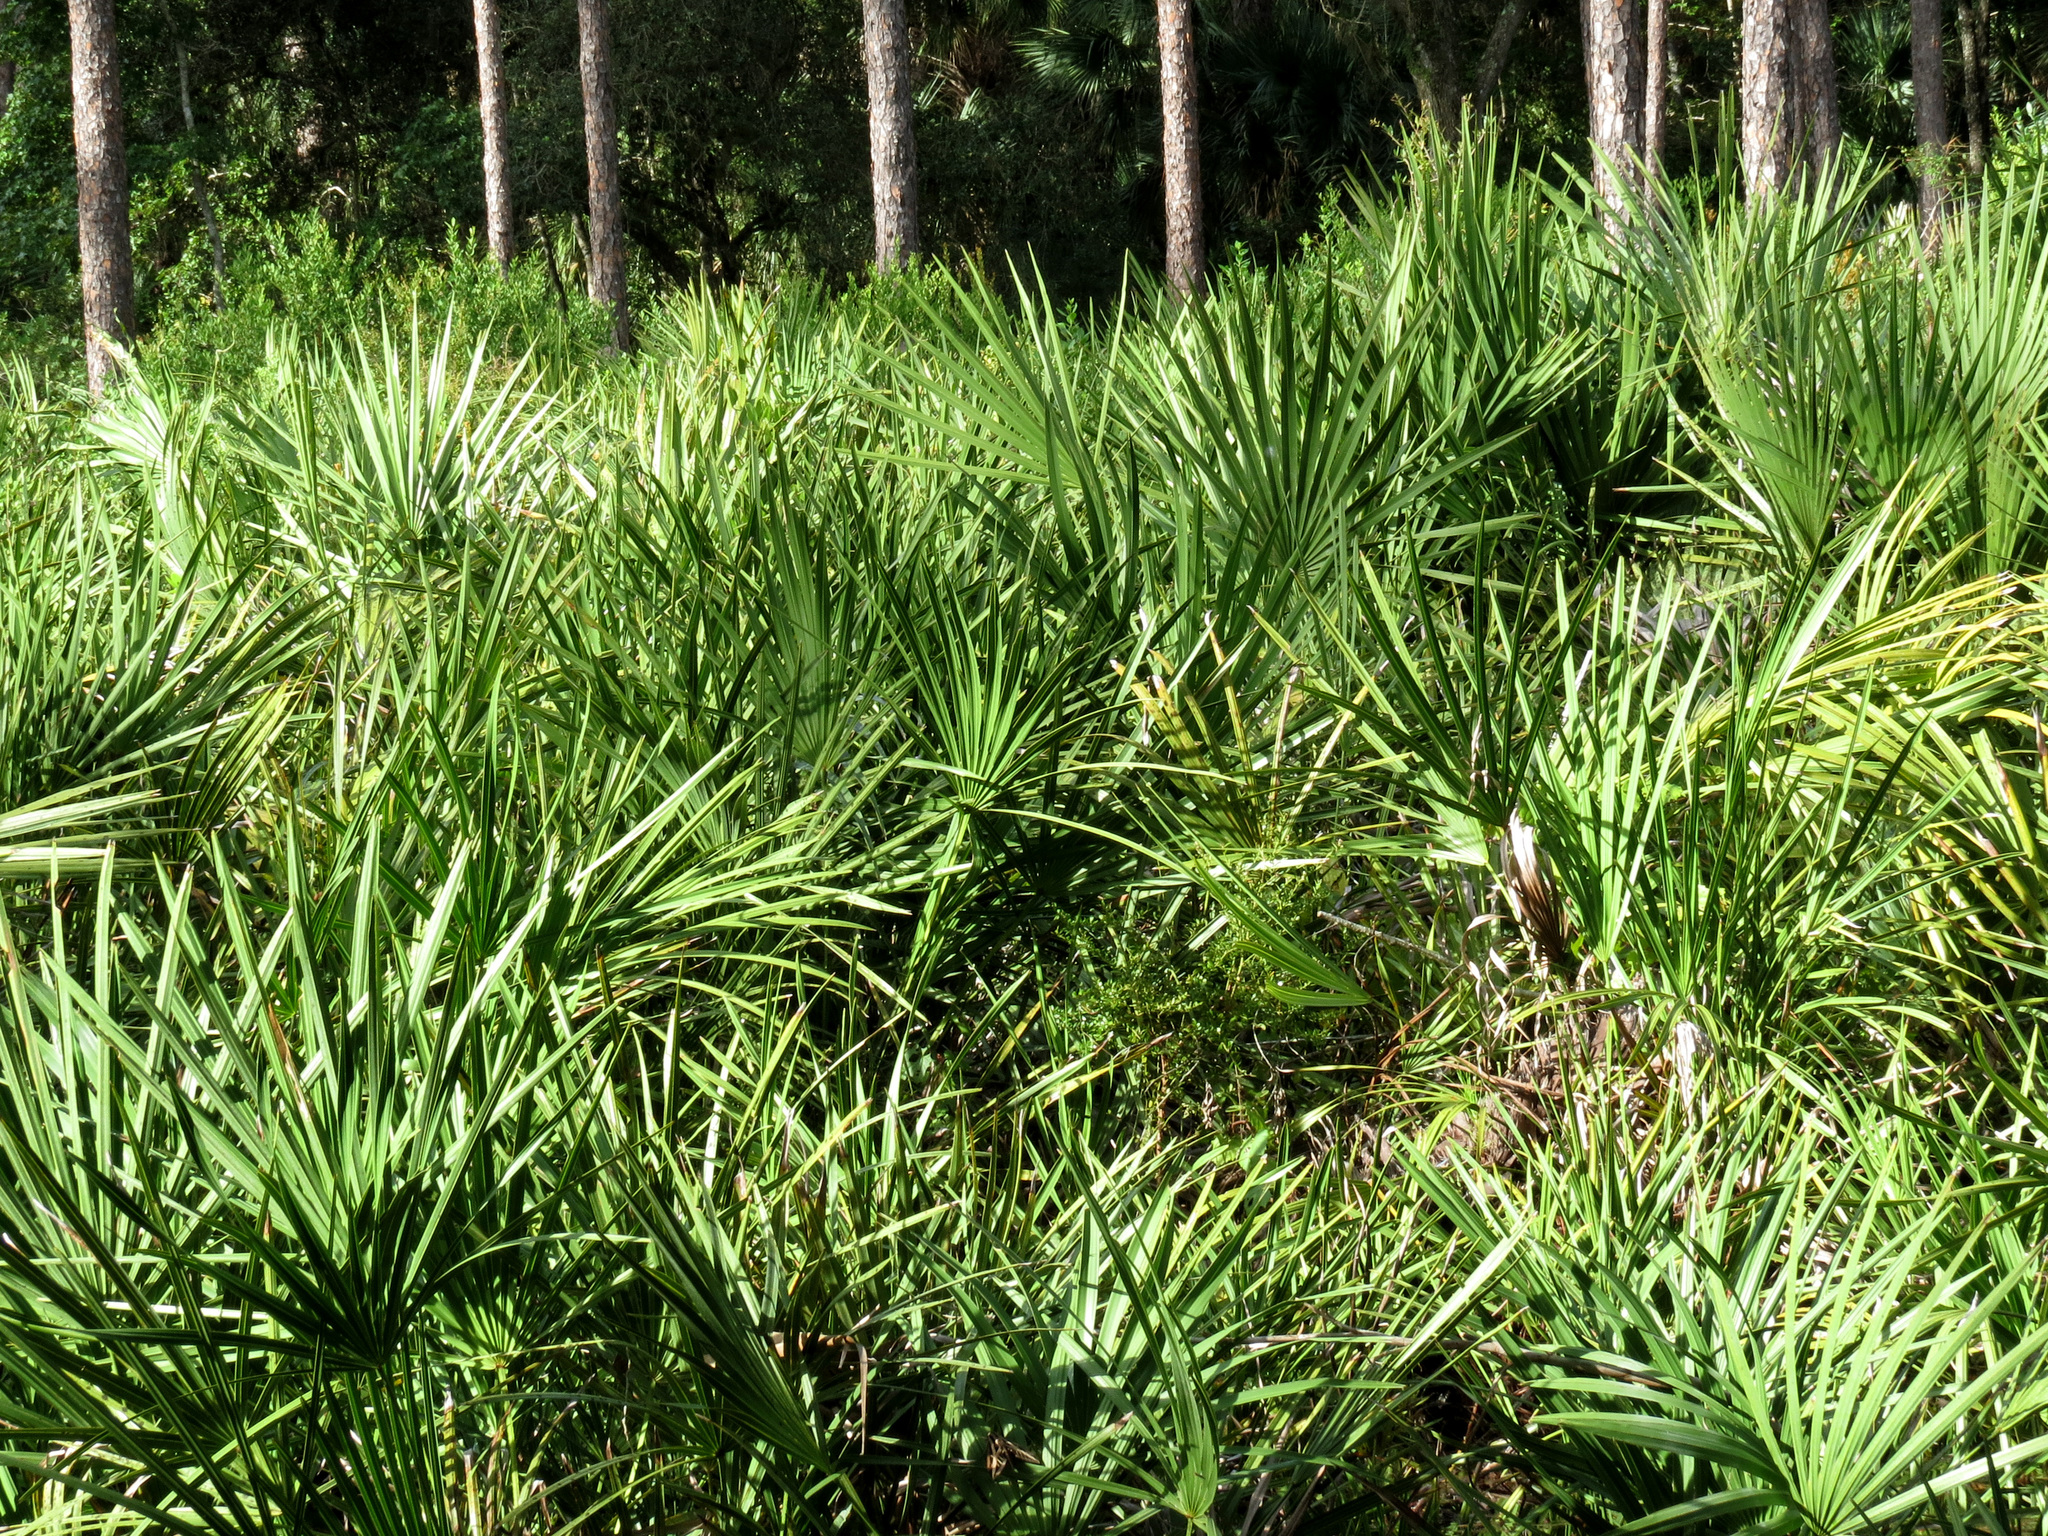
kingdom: Plantae
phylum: Tracheophyta
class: Liliopsida
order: Arecales
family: Arecaceae
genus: Serenoa
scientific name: Serenoa repens
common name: Saw-palmetto
